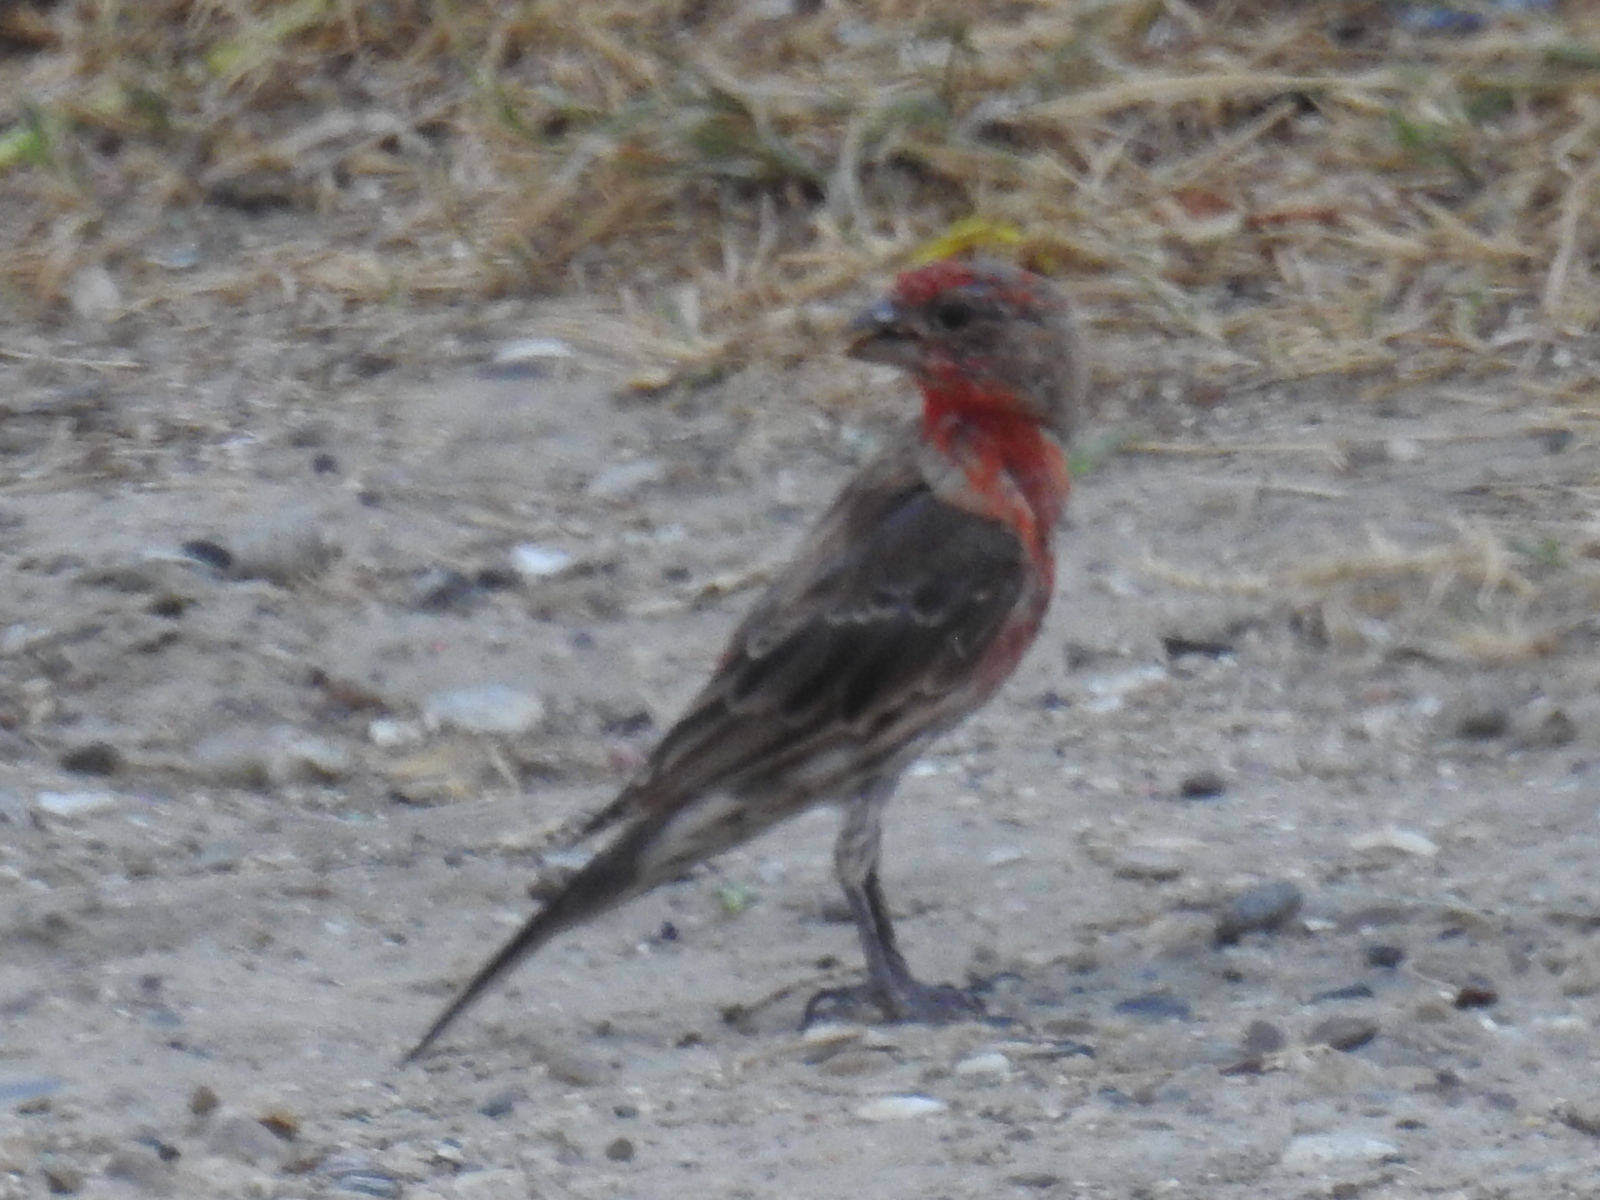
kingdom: Animalia
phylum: Chordata
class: Aves
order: Passeriformes
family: Fringillidae
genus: Haemorhous
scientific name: Haemorhous mexicanus
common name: House finch
